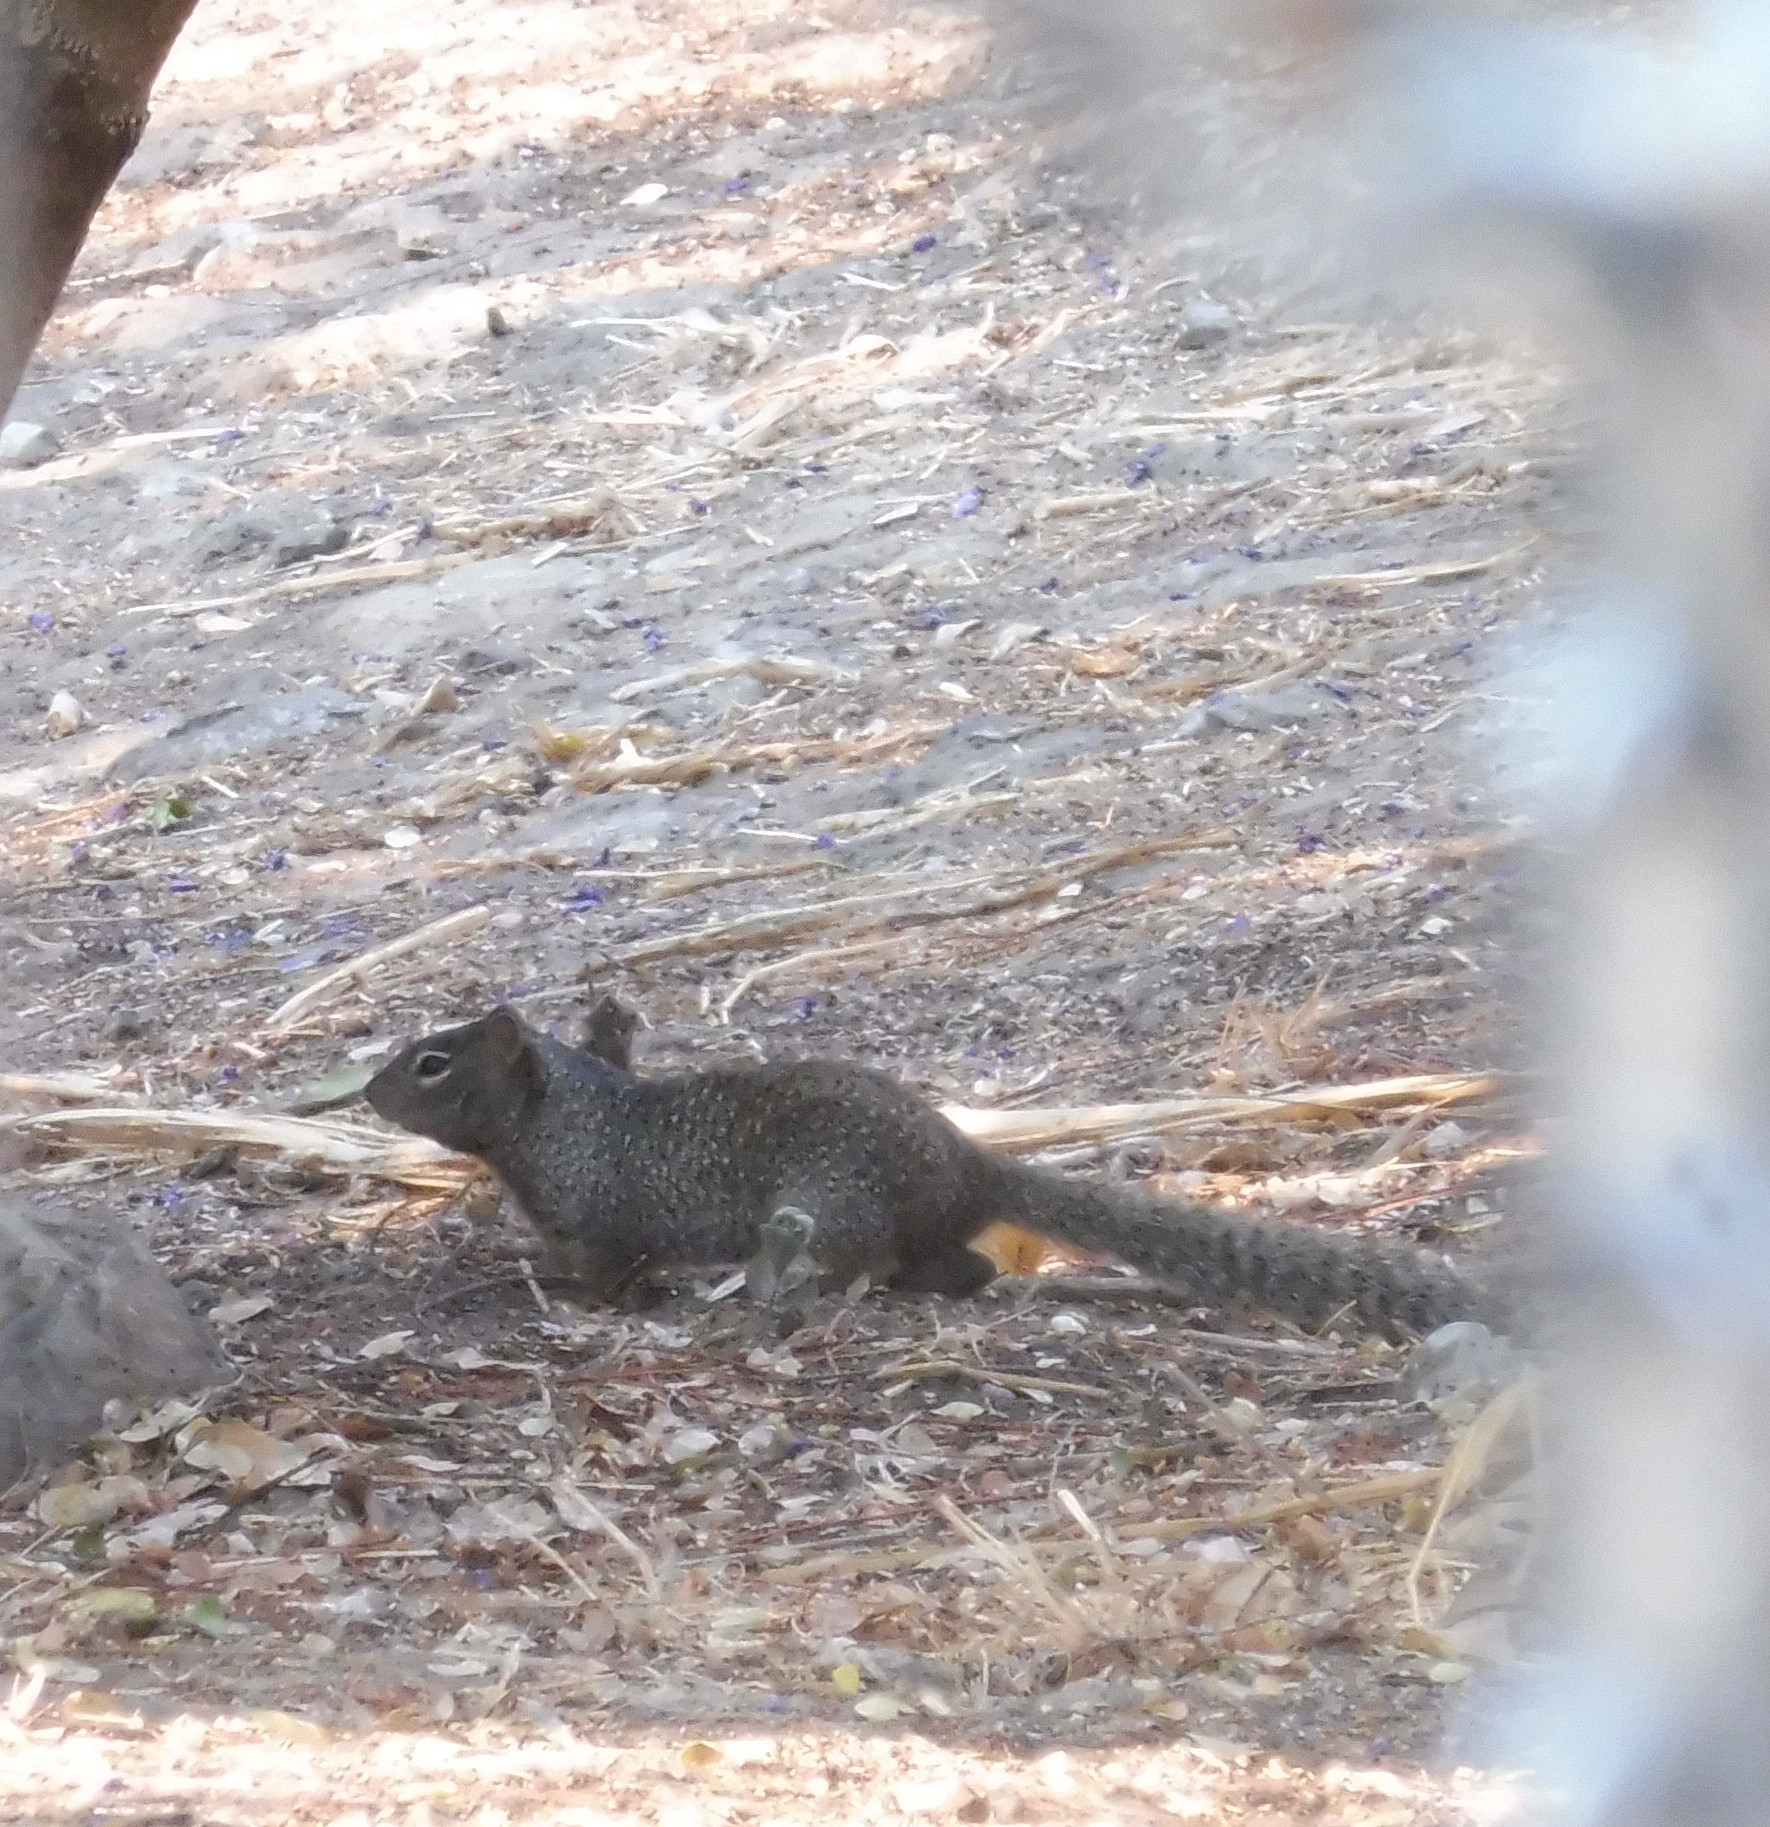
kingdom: Animalia
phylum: Chordata
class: Mammalia
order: Rodentia
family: Sciuridae
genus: Otospermophilus
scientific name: Otospermophilus variegatus
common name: Rock squirrel
